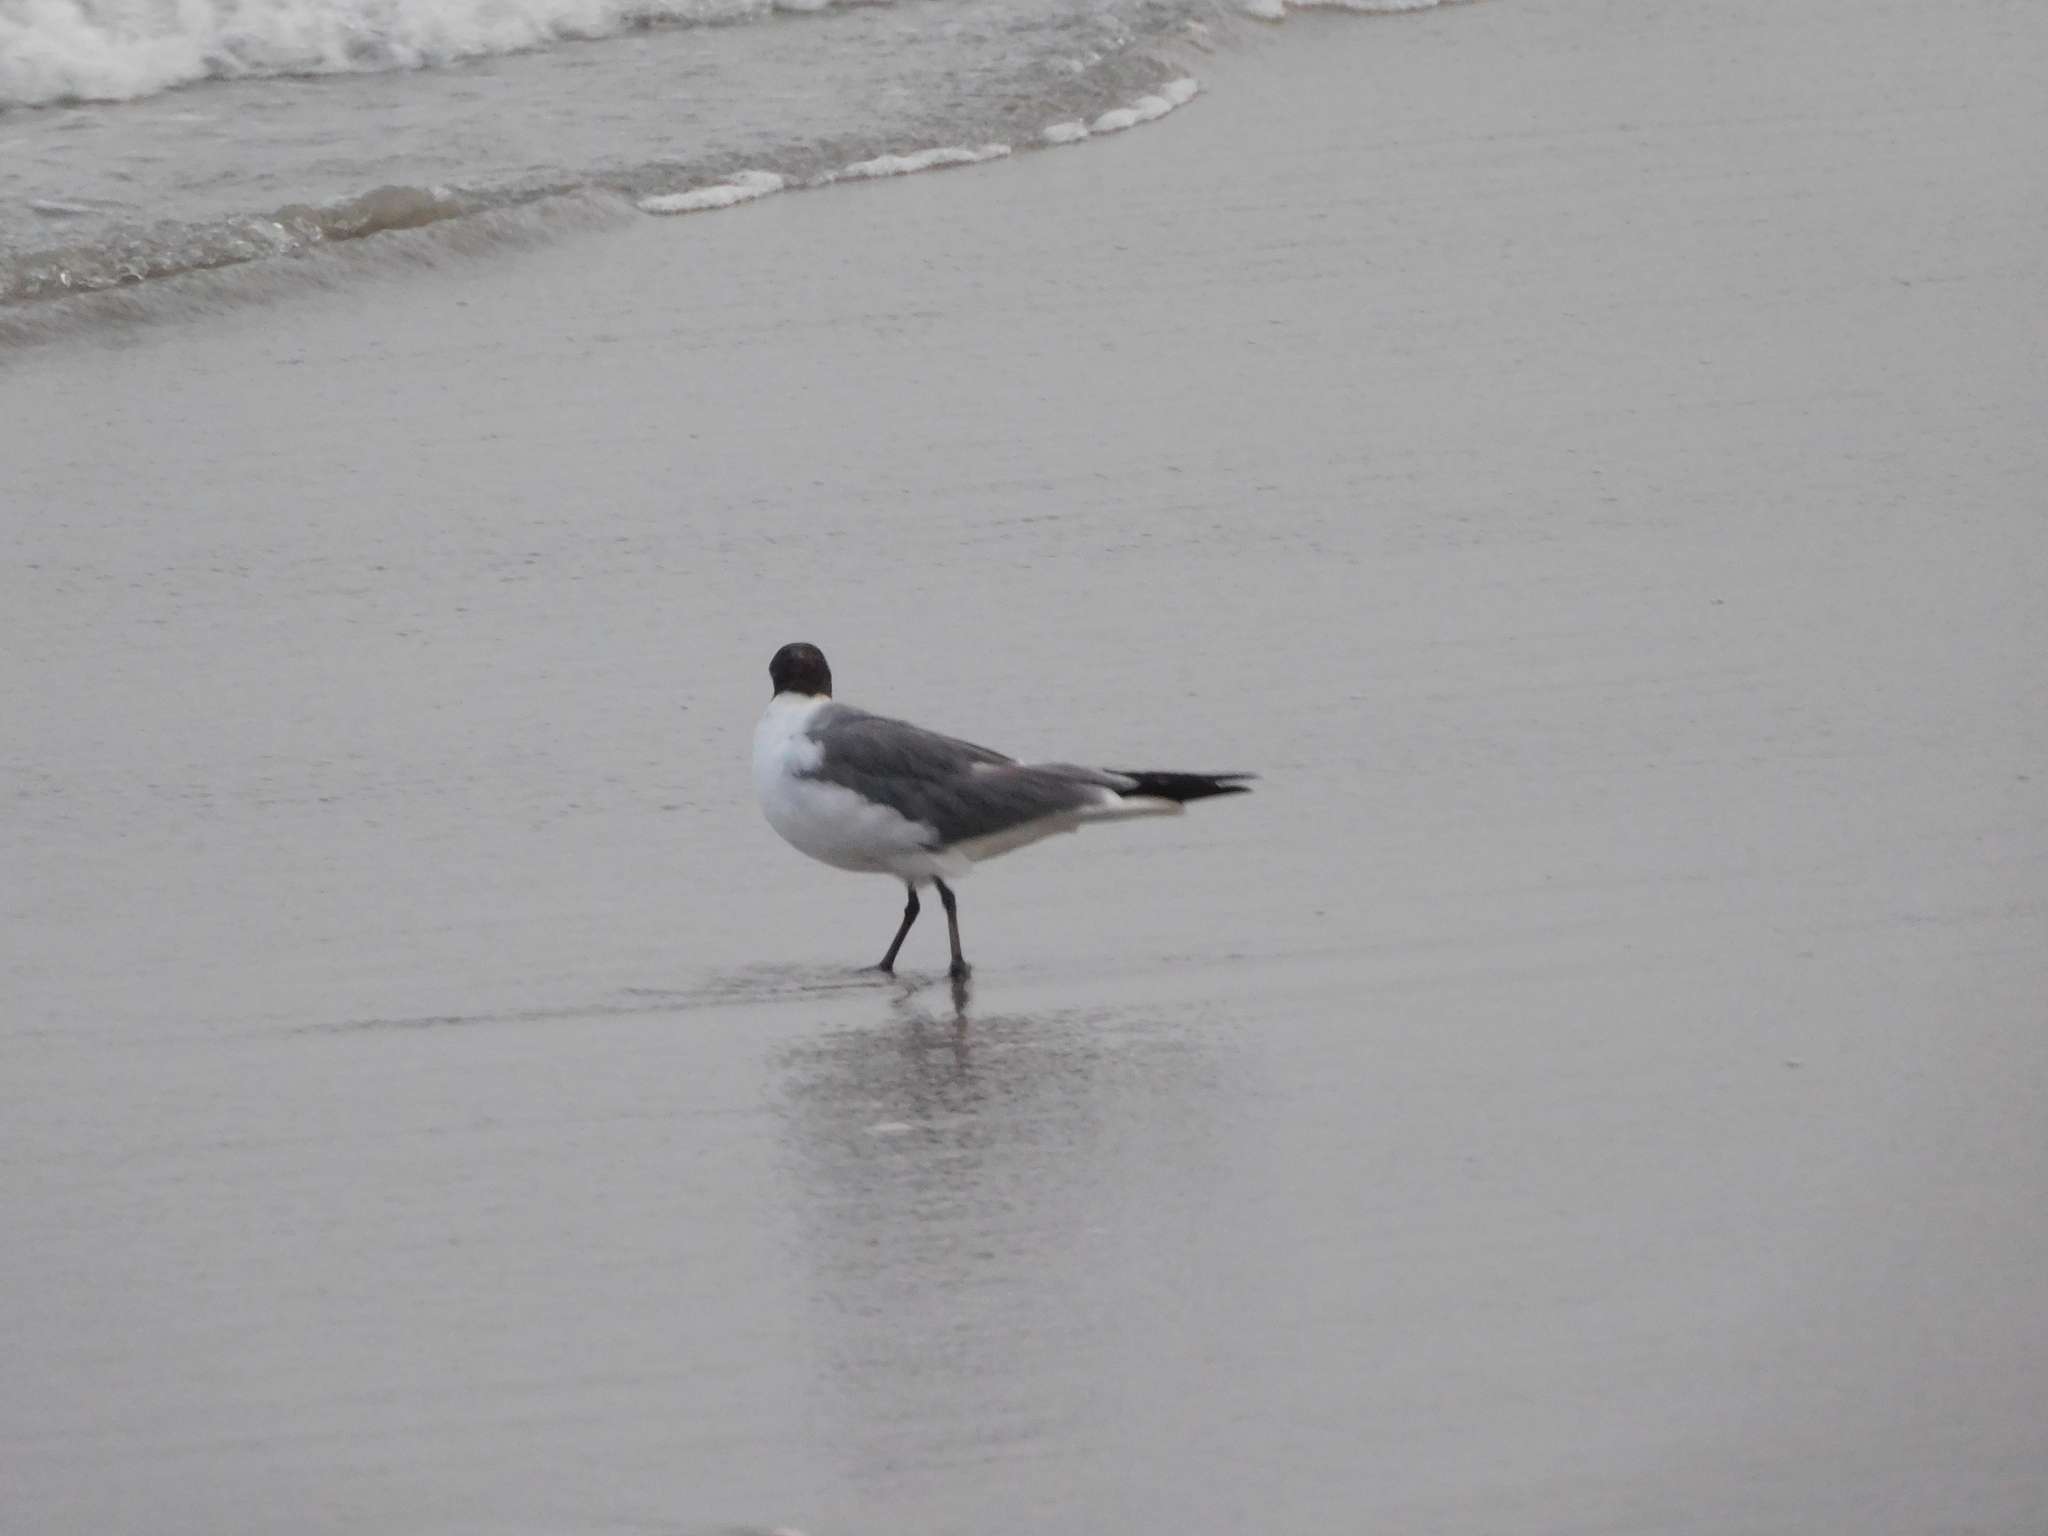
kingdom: Animalia
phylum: Chordata
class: Aves
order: Charadriiformes
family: Laridae
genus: Leucophaeus
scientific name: Leucophaeus atricilla
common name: Laughing gull
